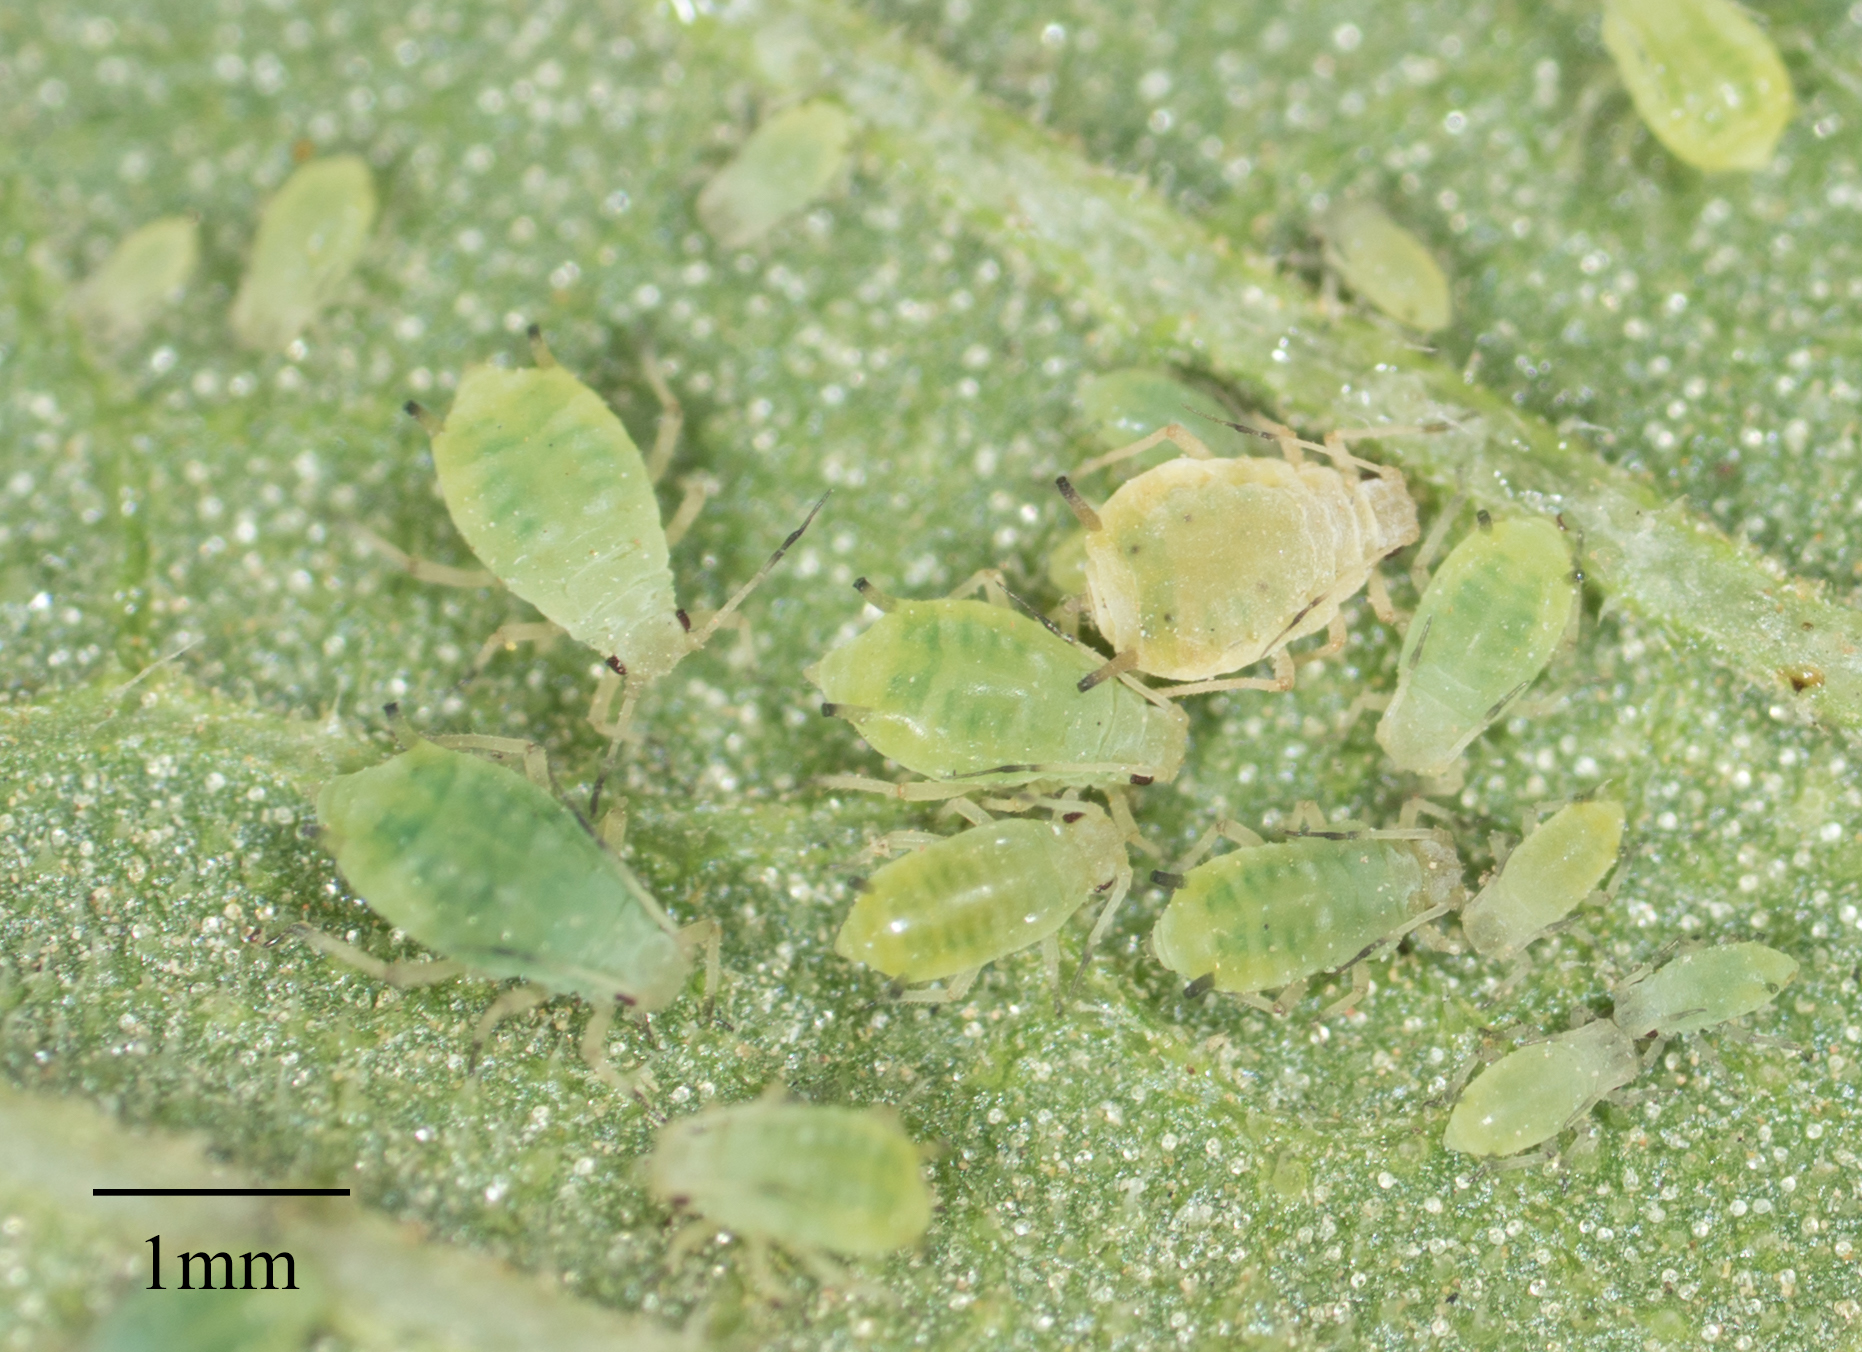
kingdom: Animalia
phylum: Arthropoda
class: Insecta
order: Hemiptera
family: Aphididae
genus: Aphis
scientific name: Aphis asclepiadis
